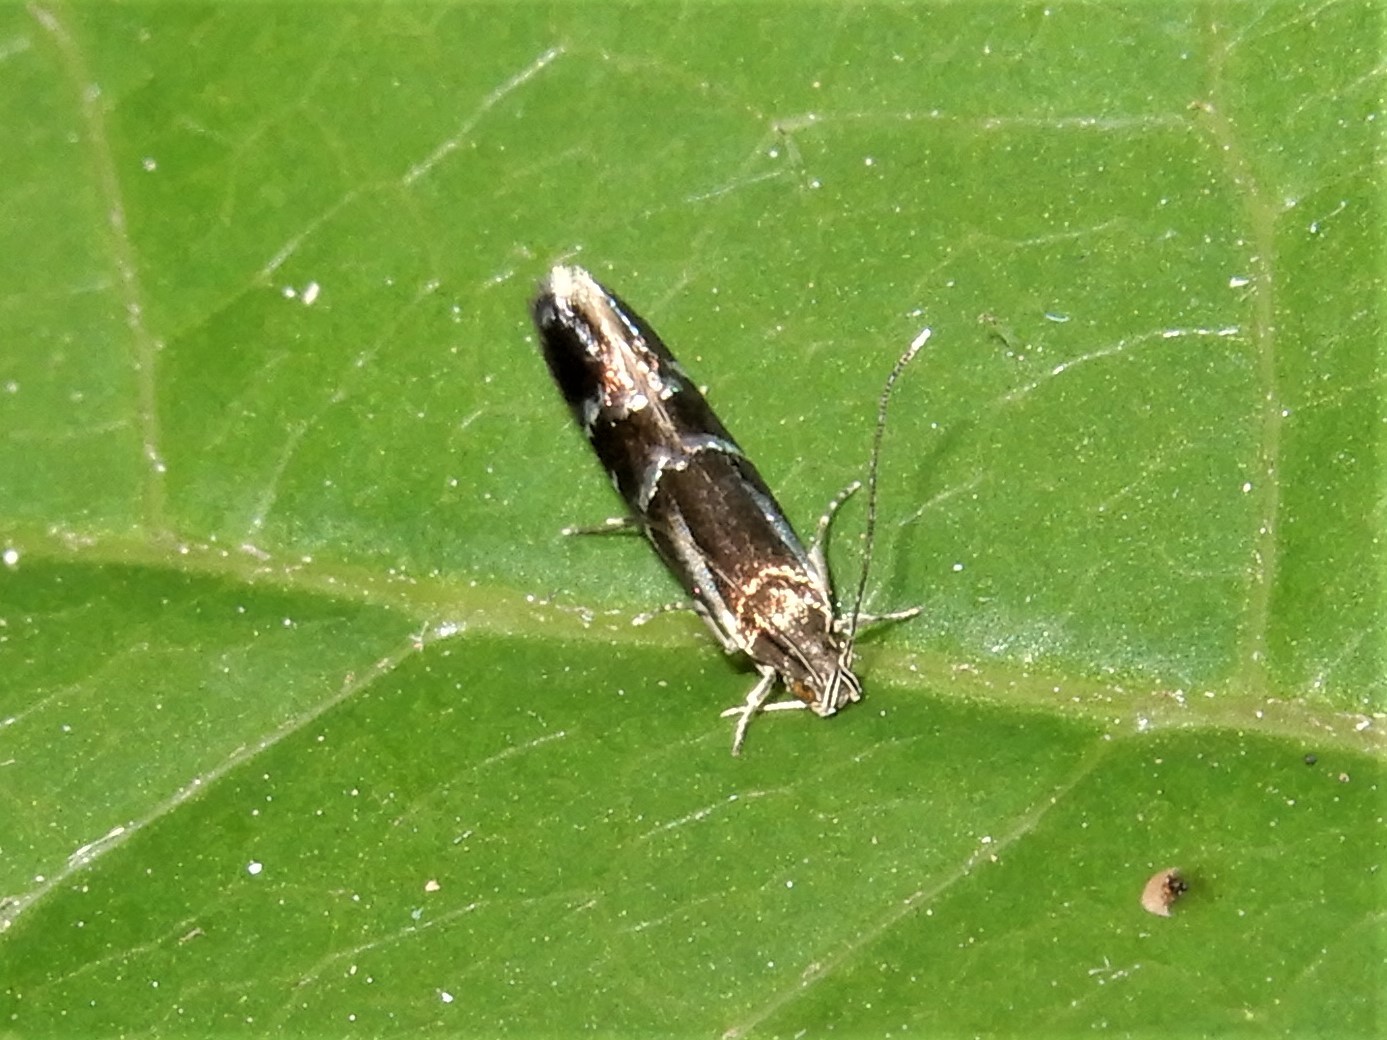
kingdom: Animalia
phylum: Arthropoda
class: Insecta
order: Lepidoptera
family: Tineidae
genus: Astrogenes
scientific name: Astrogenes insignita
